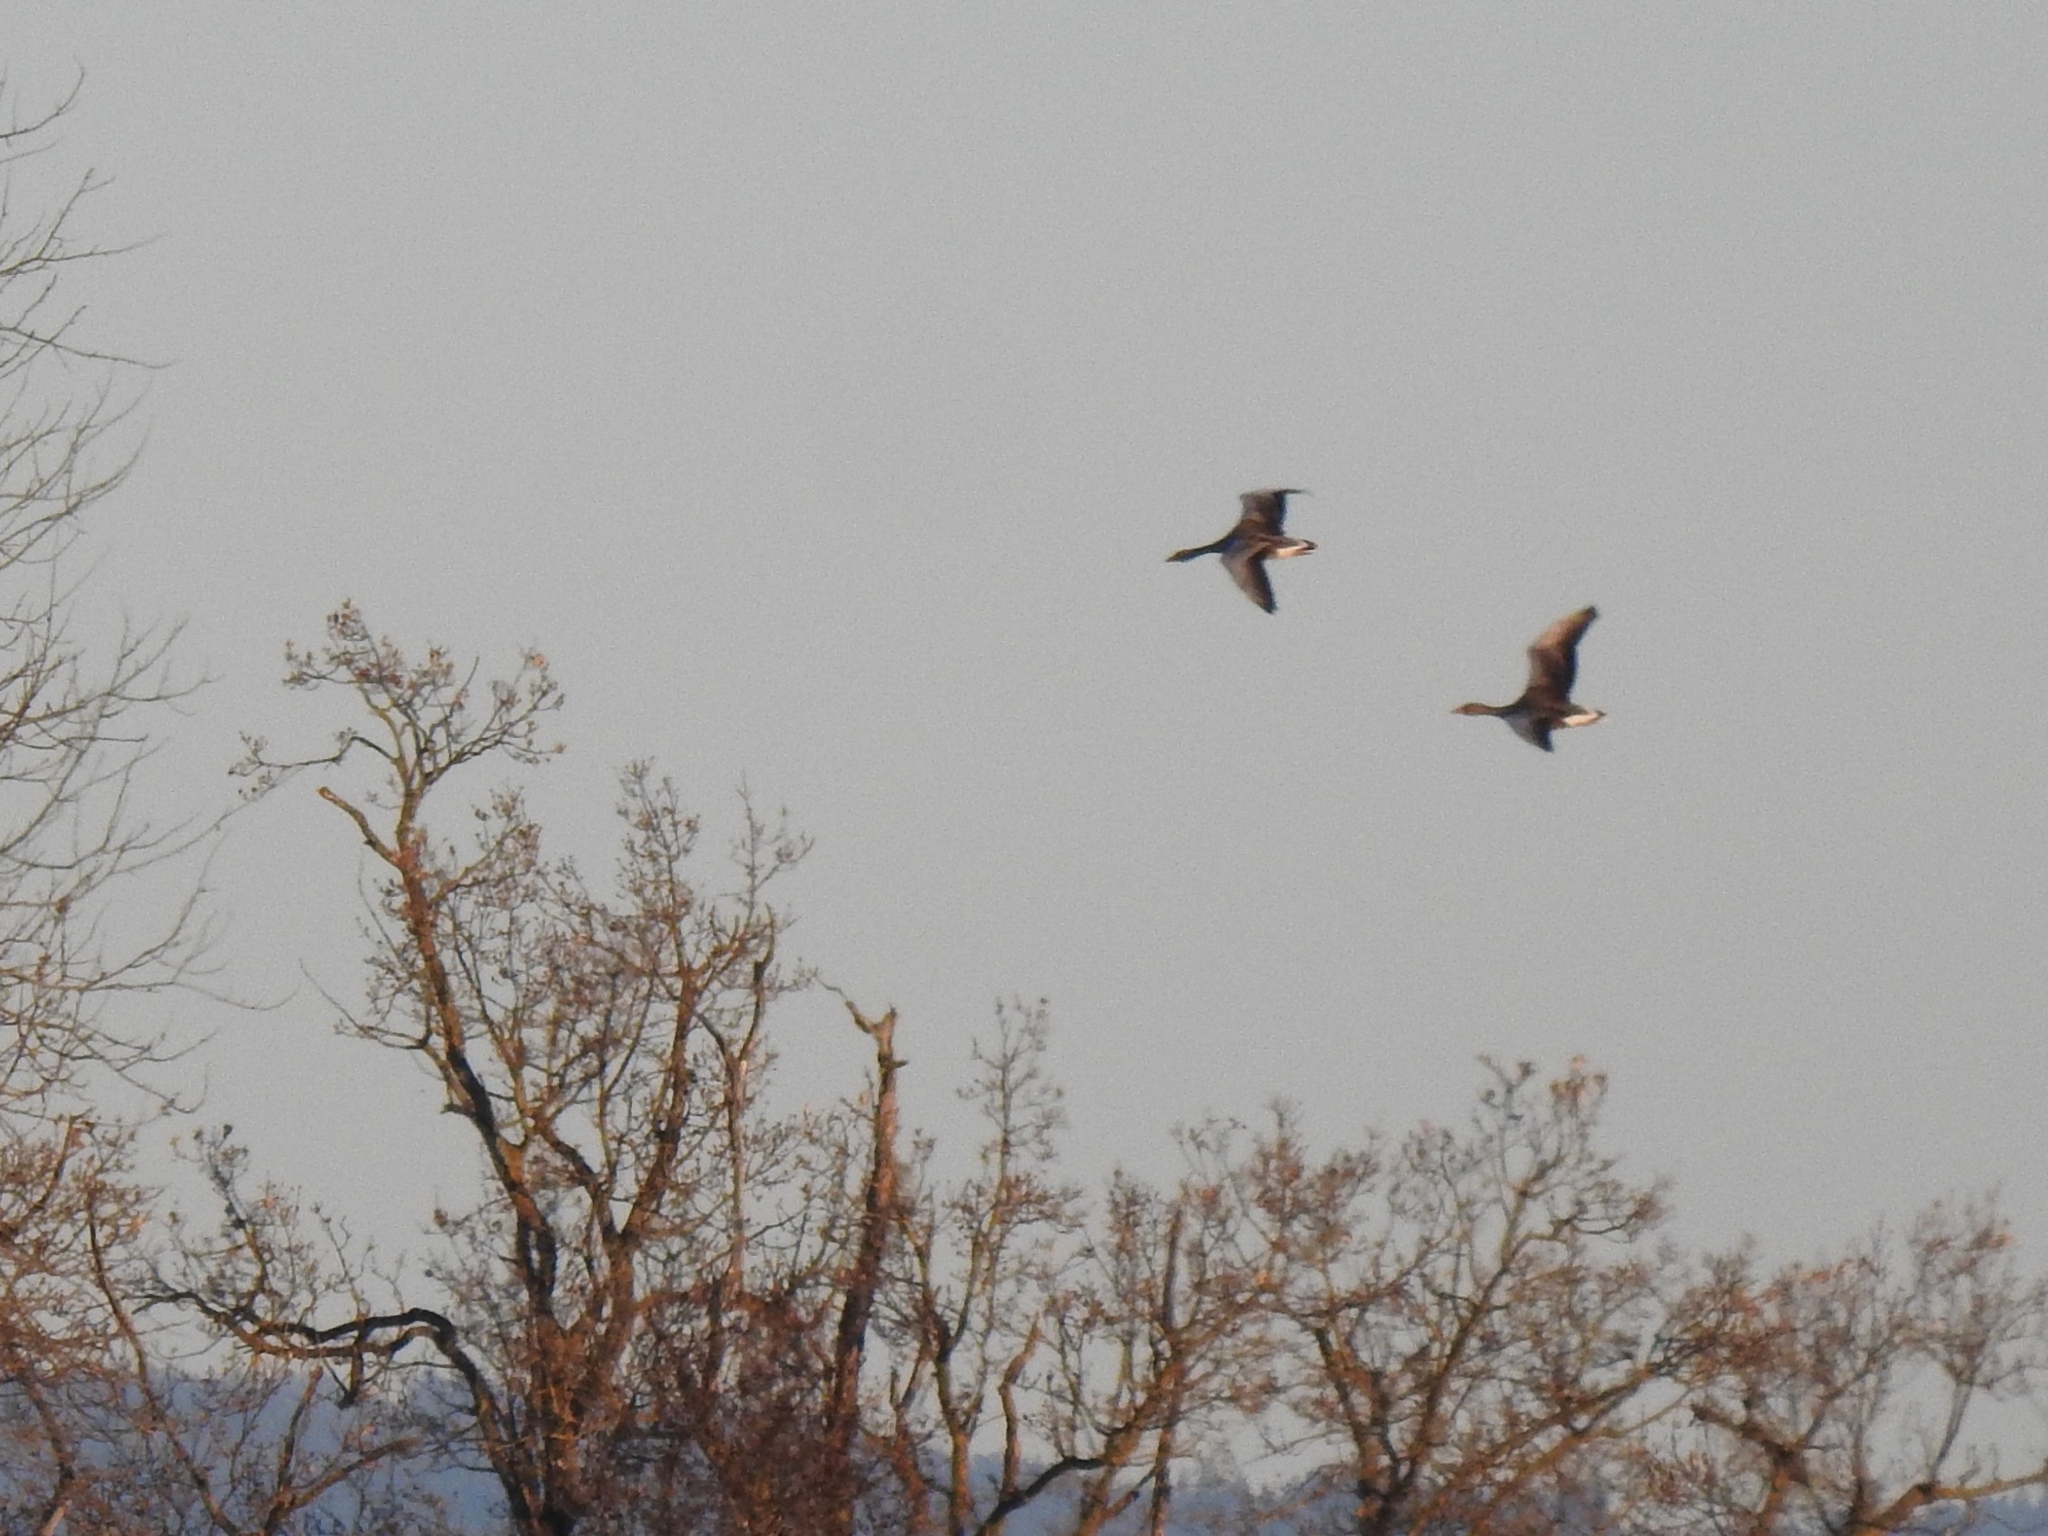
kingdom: Animalia
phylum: Chordata
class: Aves
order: Anseriformes
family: Anatidae
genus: Anser
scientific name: Anser anser
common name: Greylag goose
